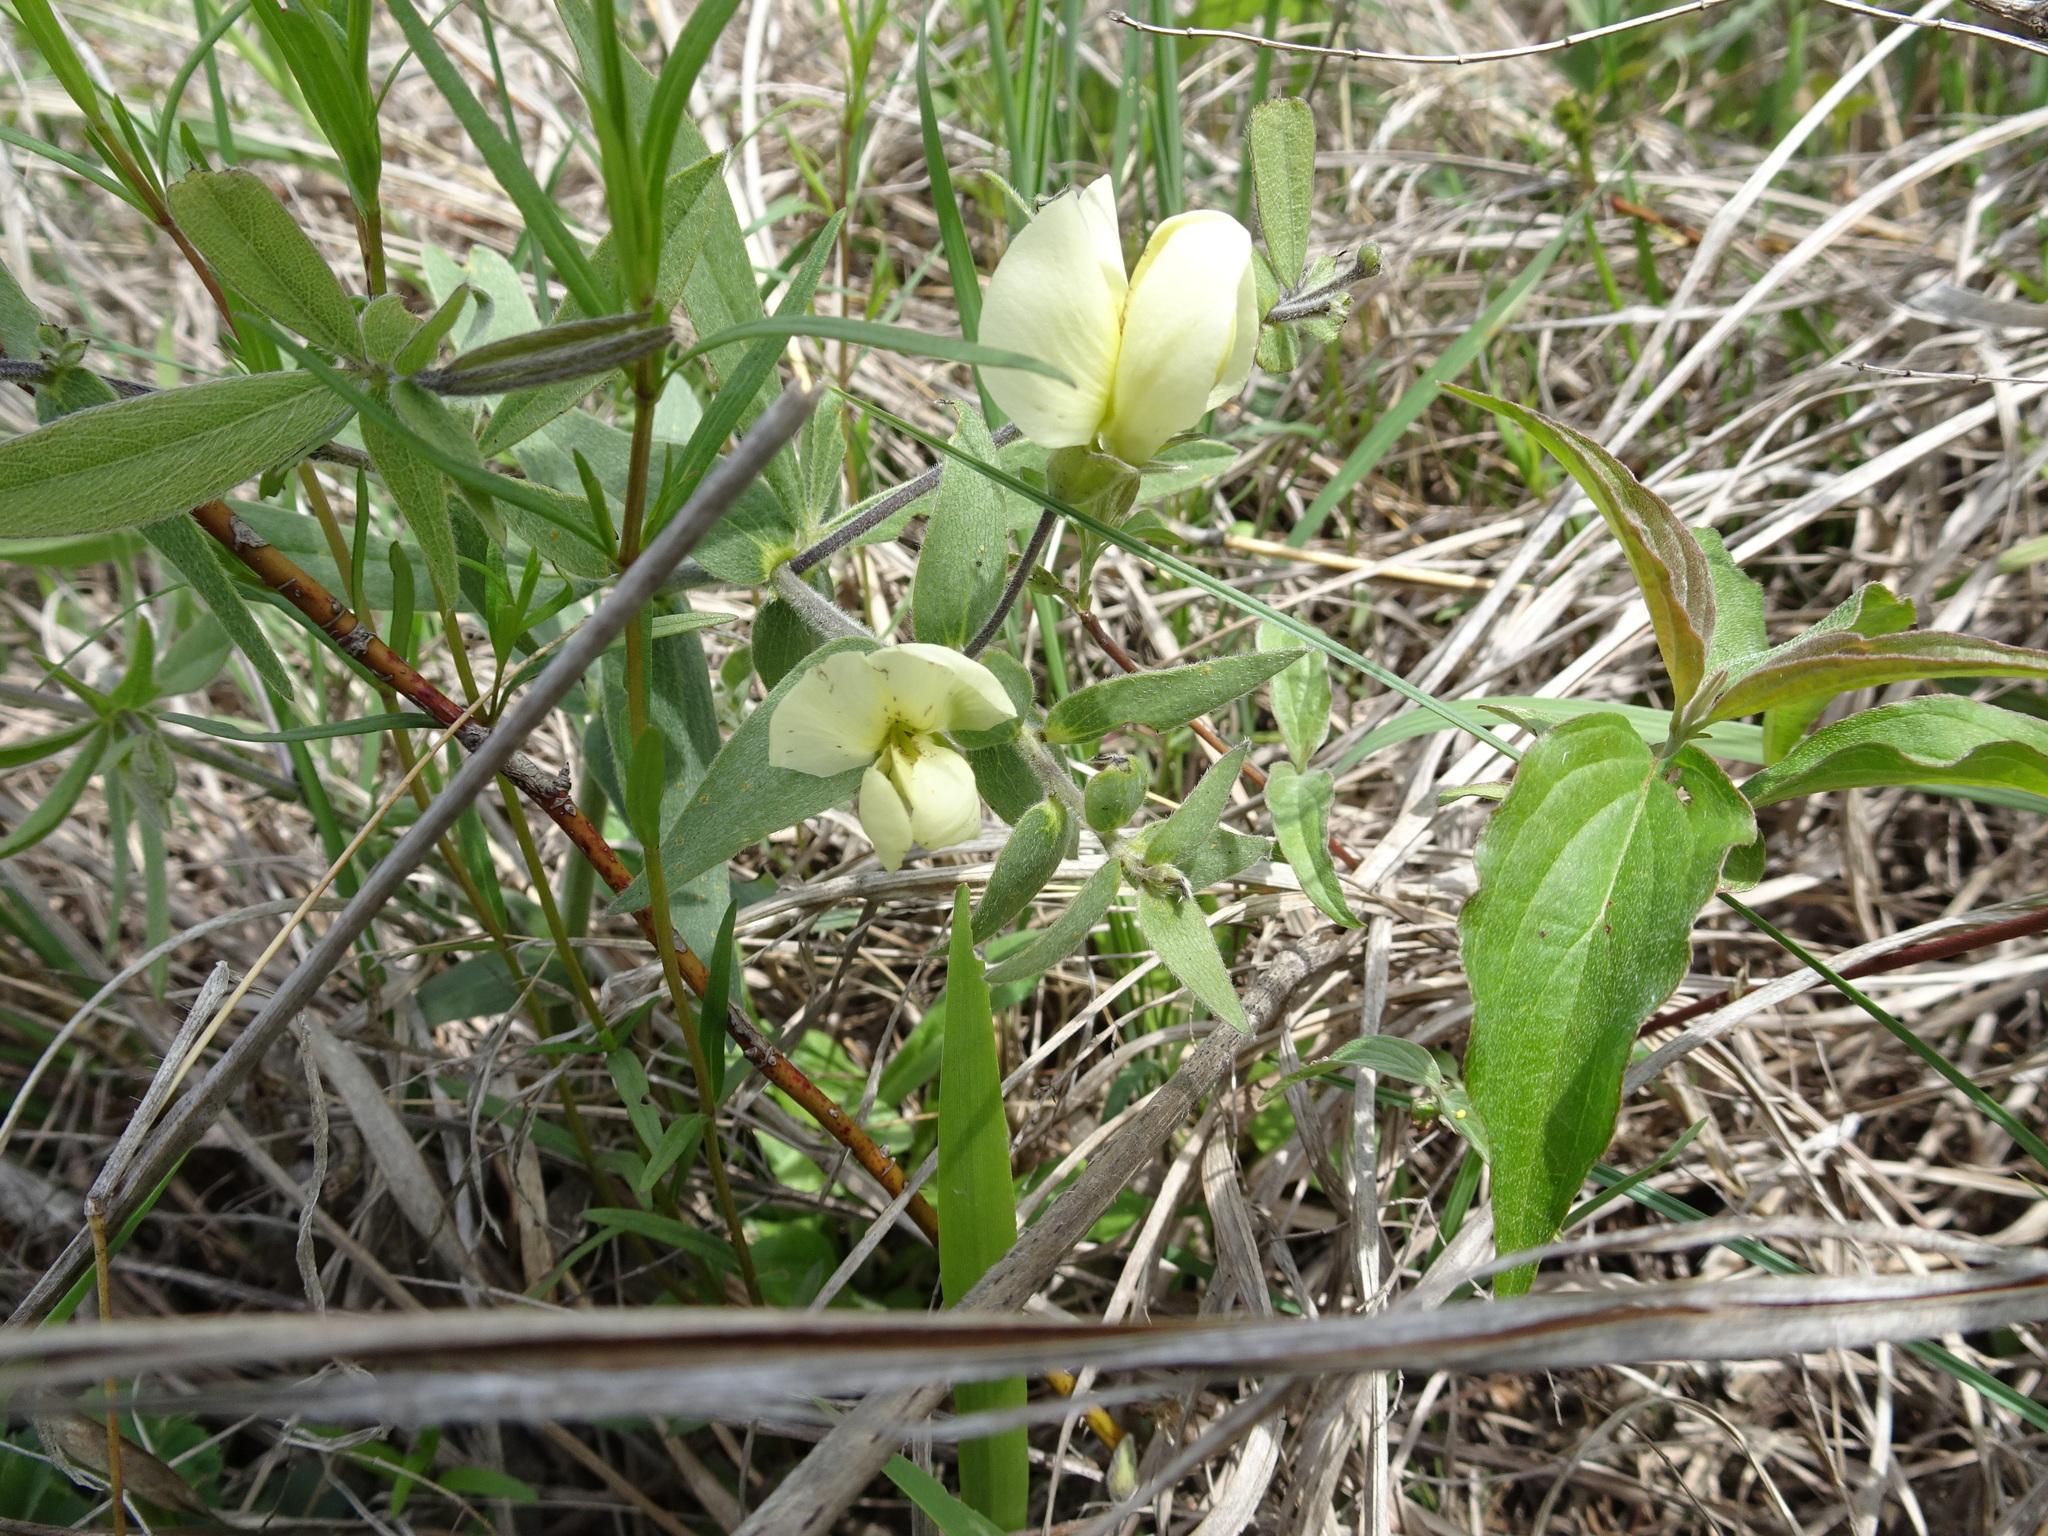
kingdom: Plantae
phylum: Tracheophyta
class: Magnoliopsida
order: Fabales
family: Fabaceae
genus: Baptisia
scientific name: Baptisia bracteata
